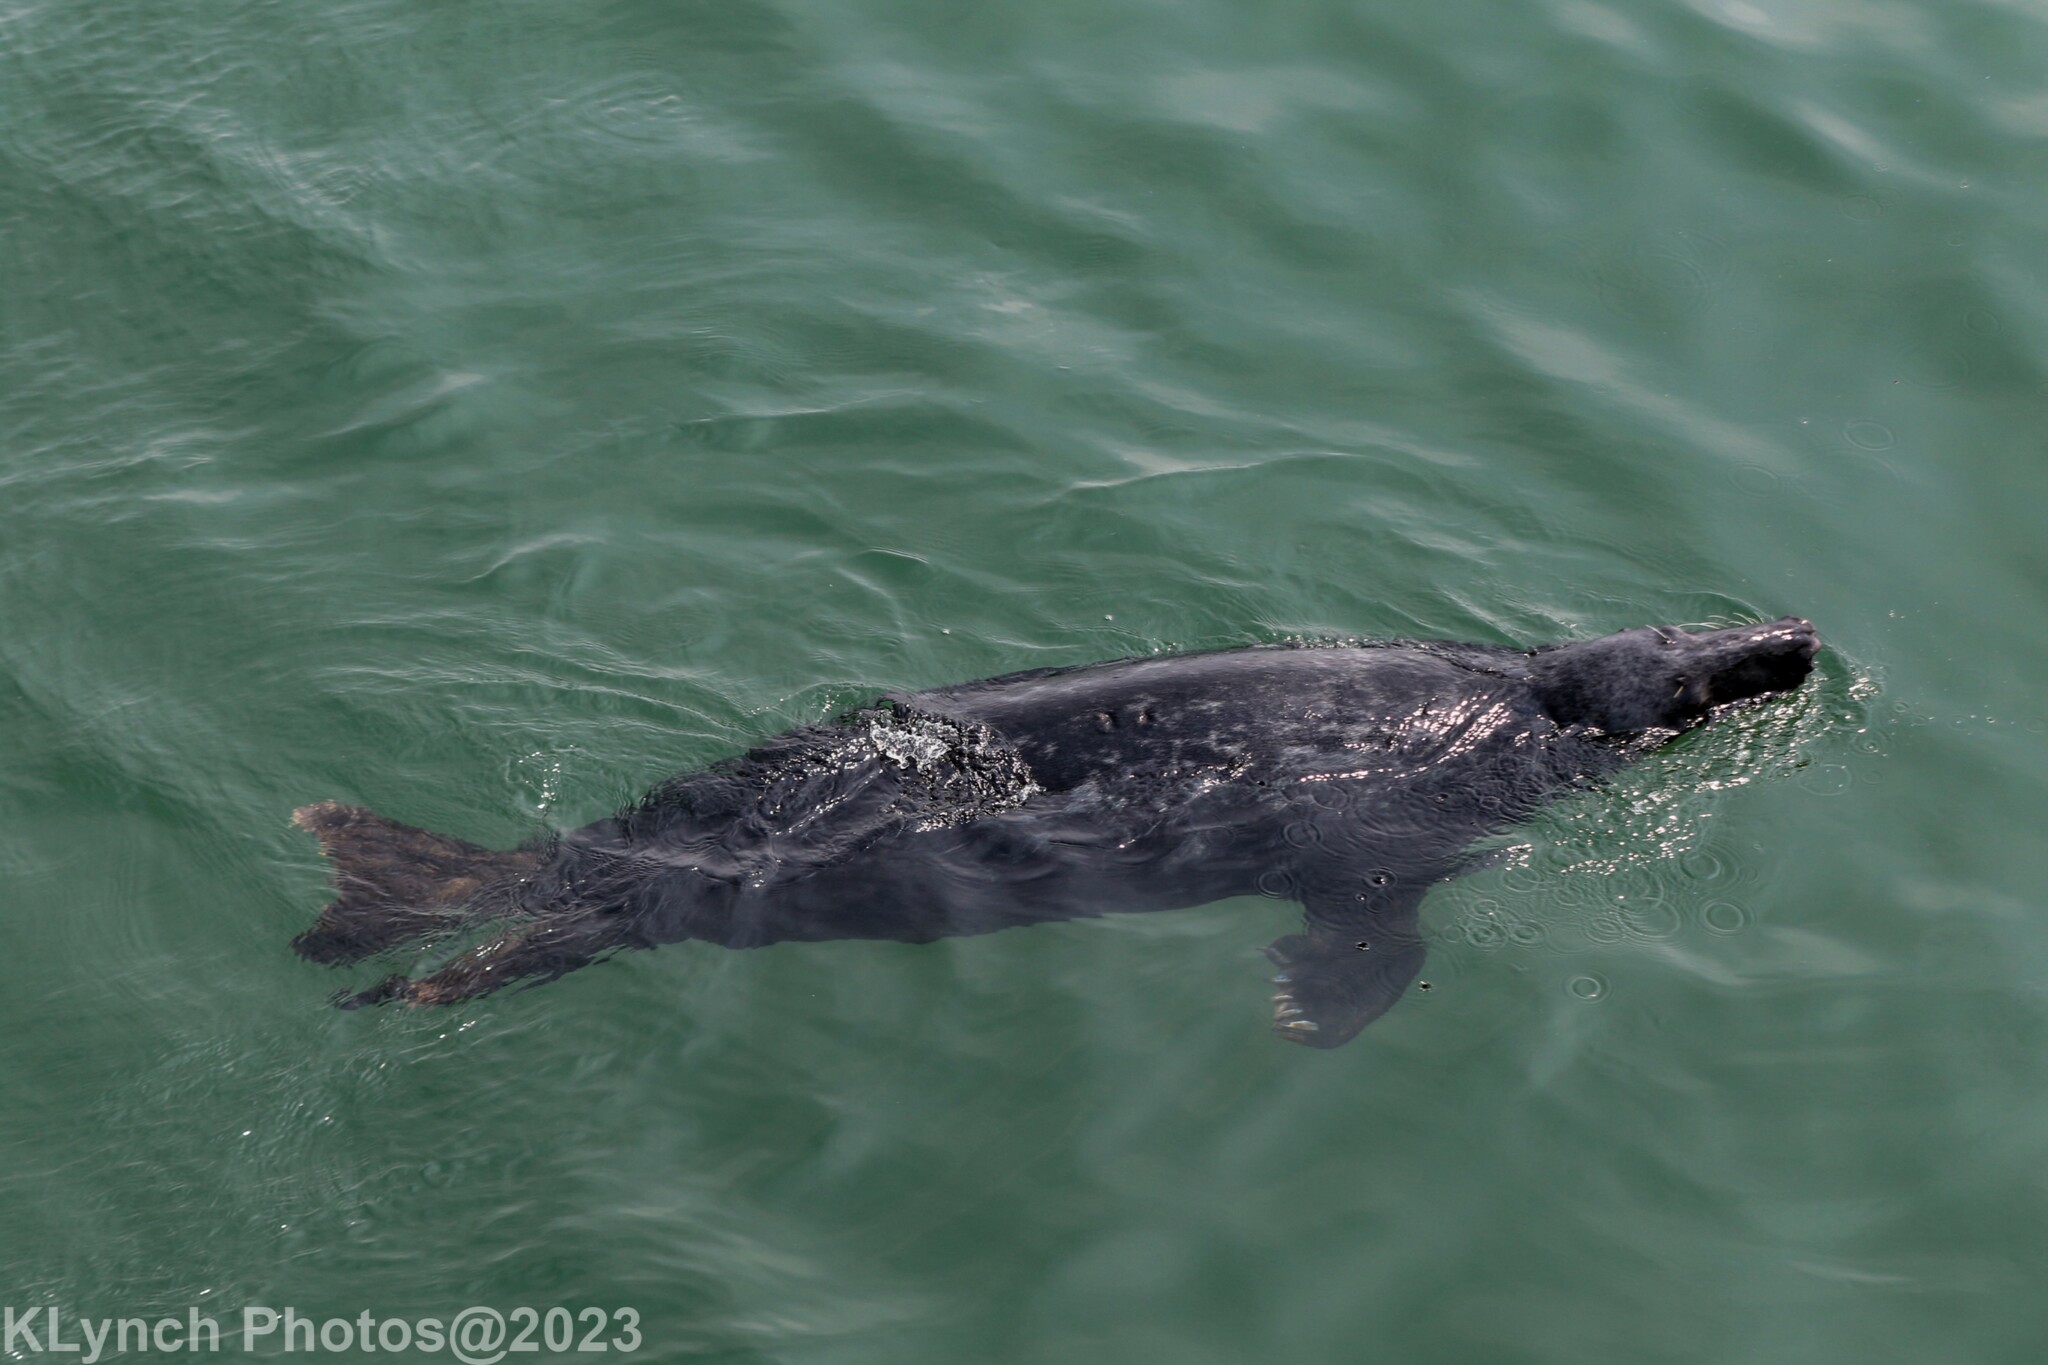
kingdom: Animalia
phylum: Chordata
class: Mammalia
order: Carnivora
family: Phocidae
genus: Halichoerus
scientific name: Halichoerus grypus
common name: Grey seal
